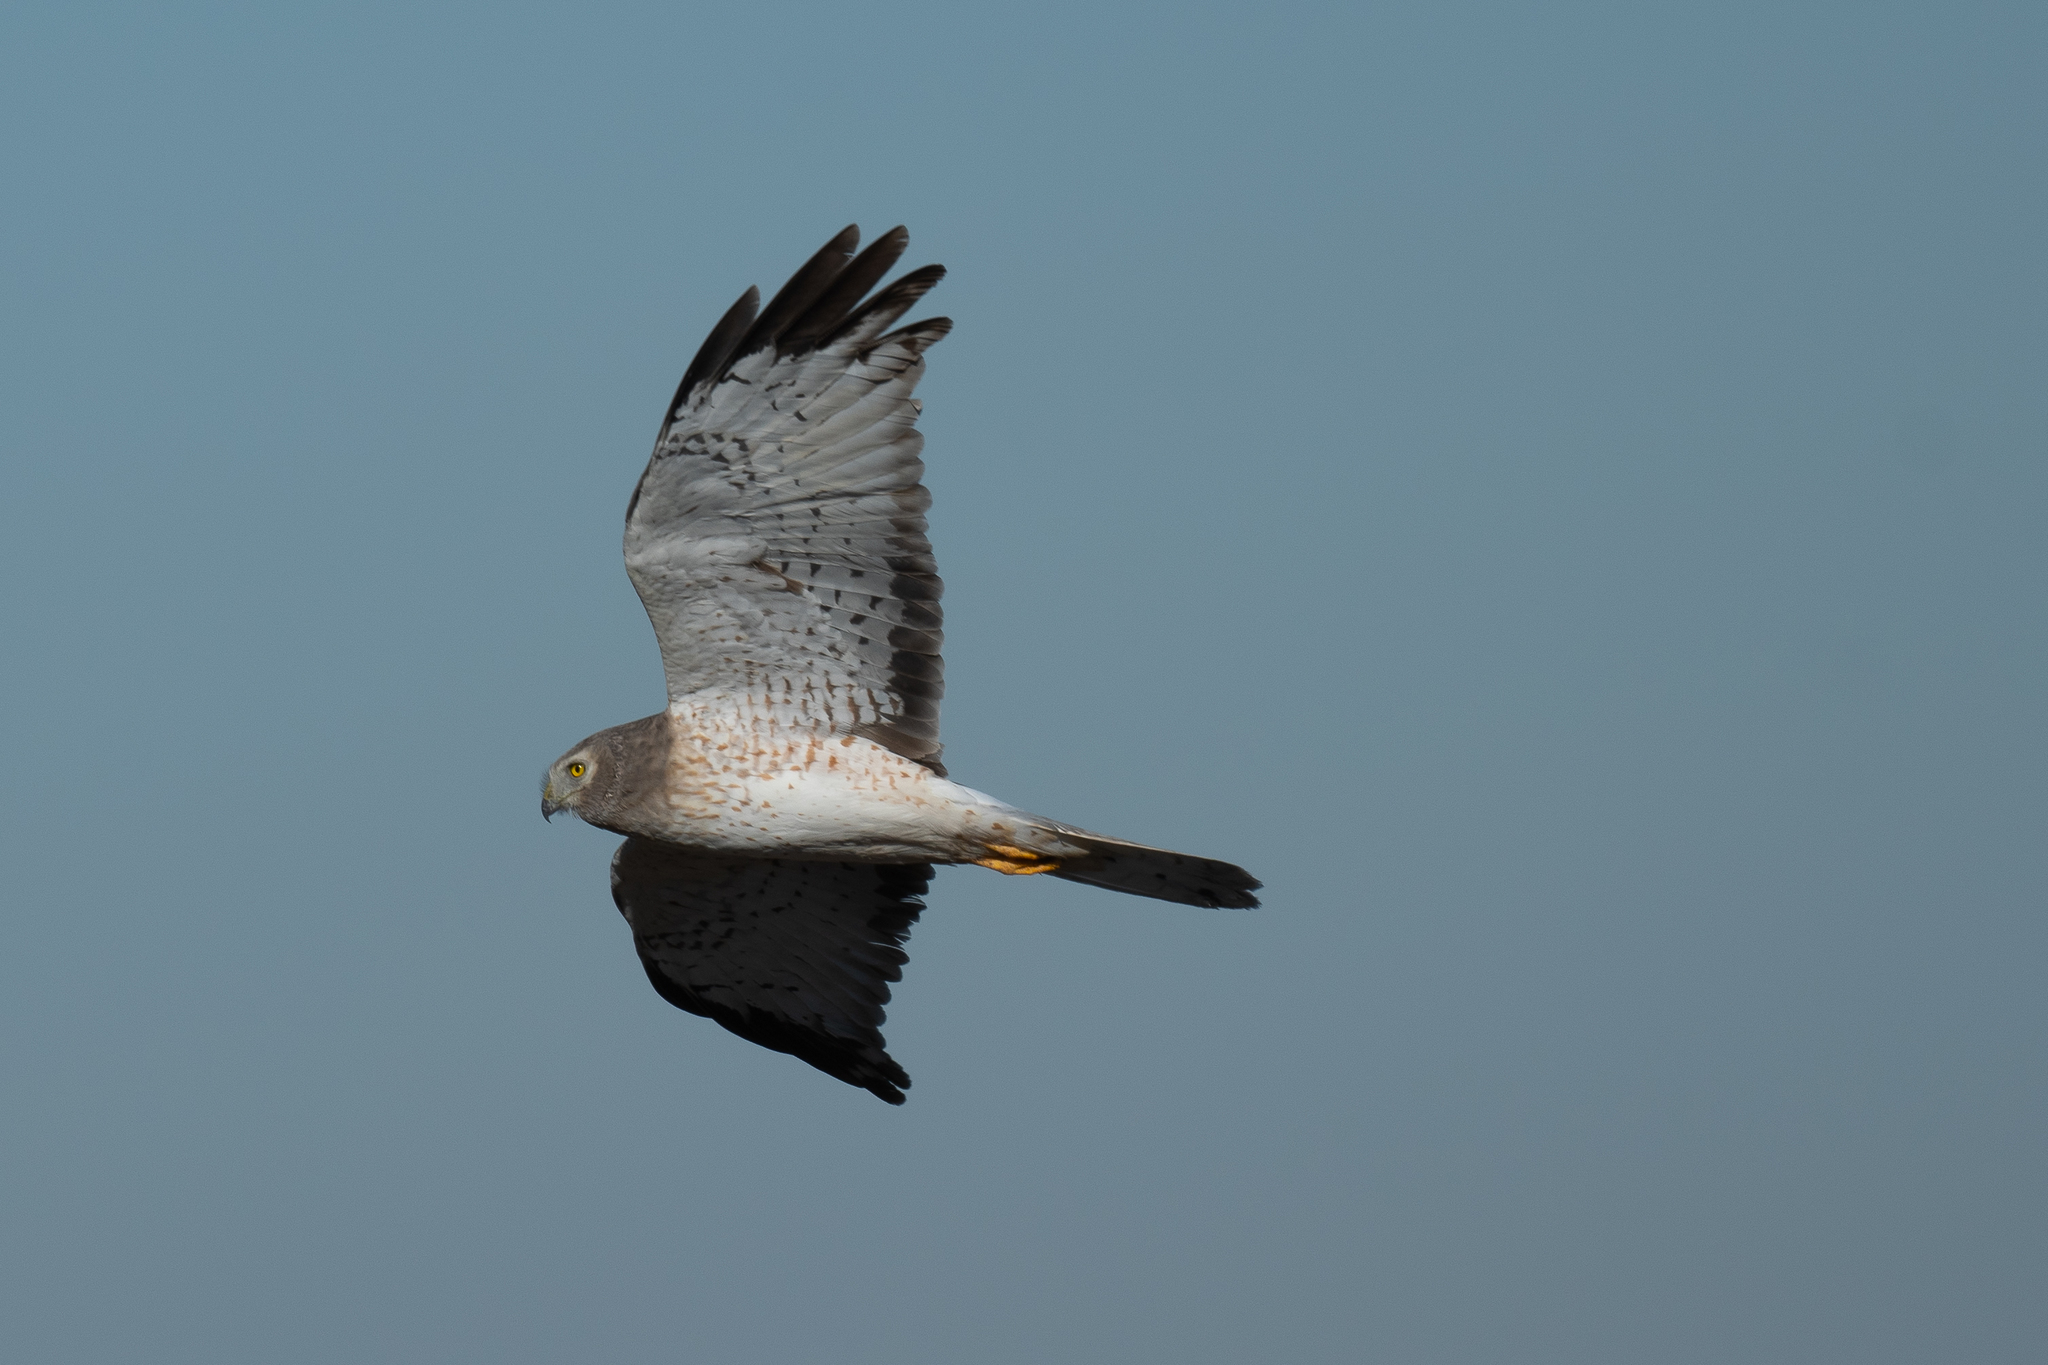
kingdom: Animalia
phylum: Chordata
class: Aves
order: Accipitriformes
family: Accipitridae
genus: Circus
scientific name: Circus cyaneus
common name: Hen harrier
